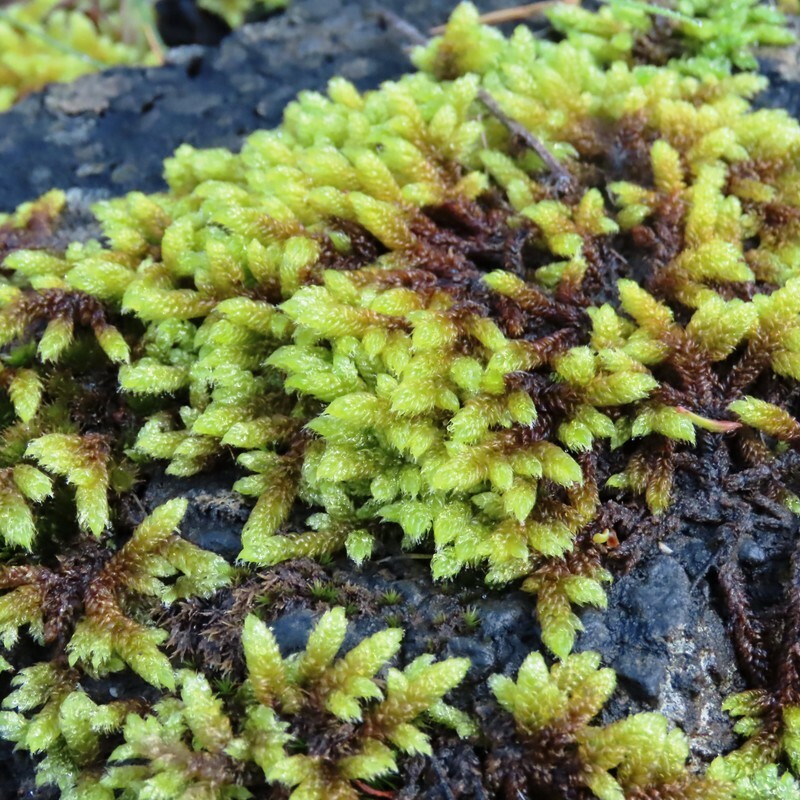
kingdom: Plantae
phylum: Bryophyta
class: Bryopsida
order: Hypnales
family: Hypnaceae
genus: Hypnum
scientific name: Hypnum cupressiforme
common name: Cypress-leaved plait-moss
